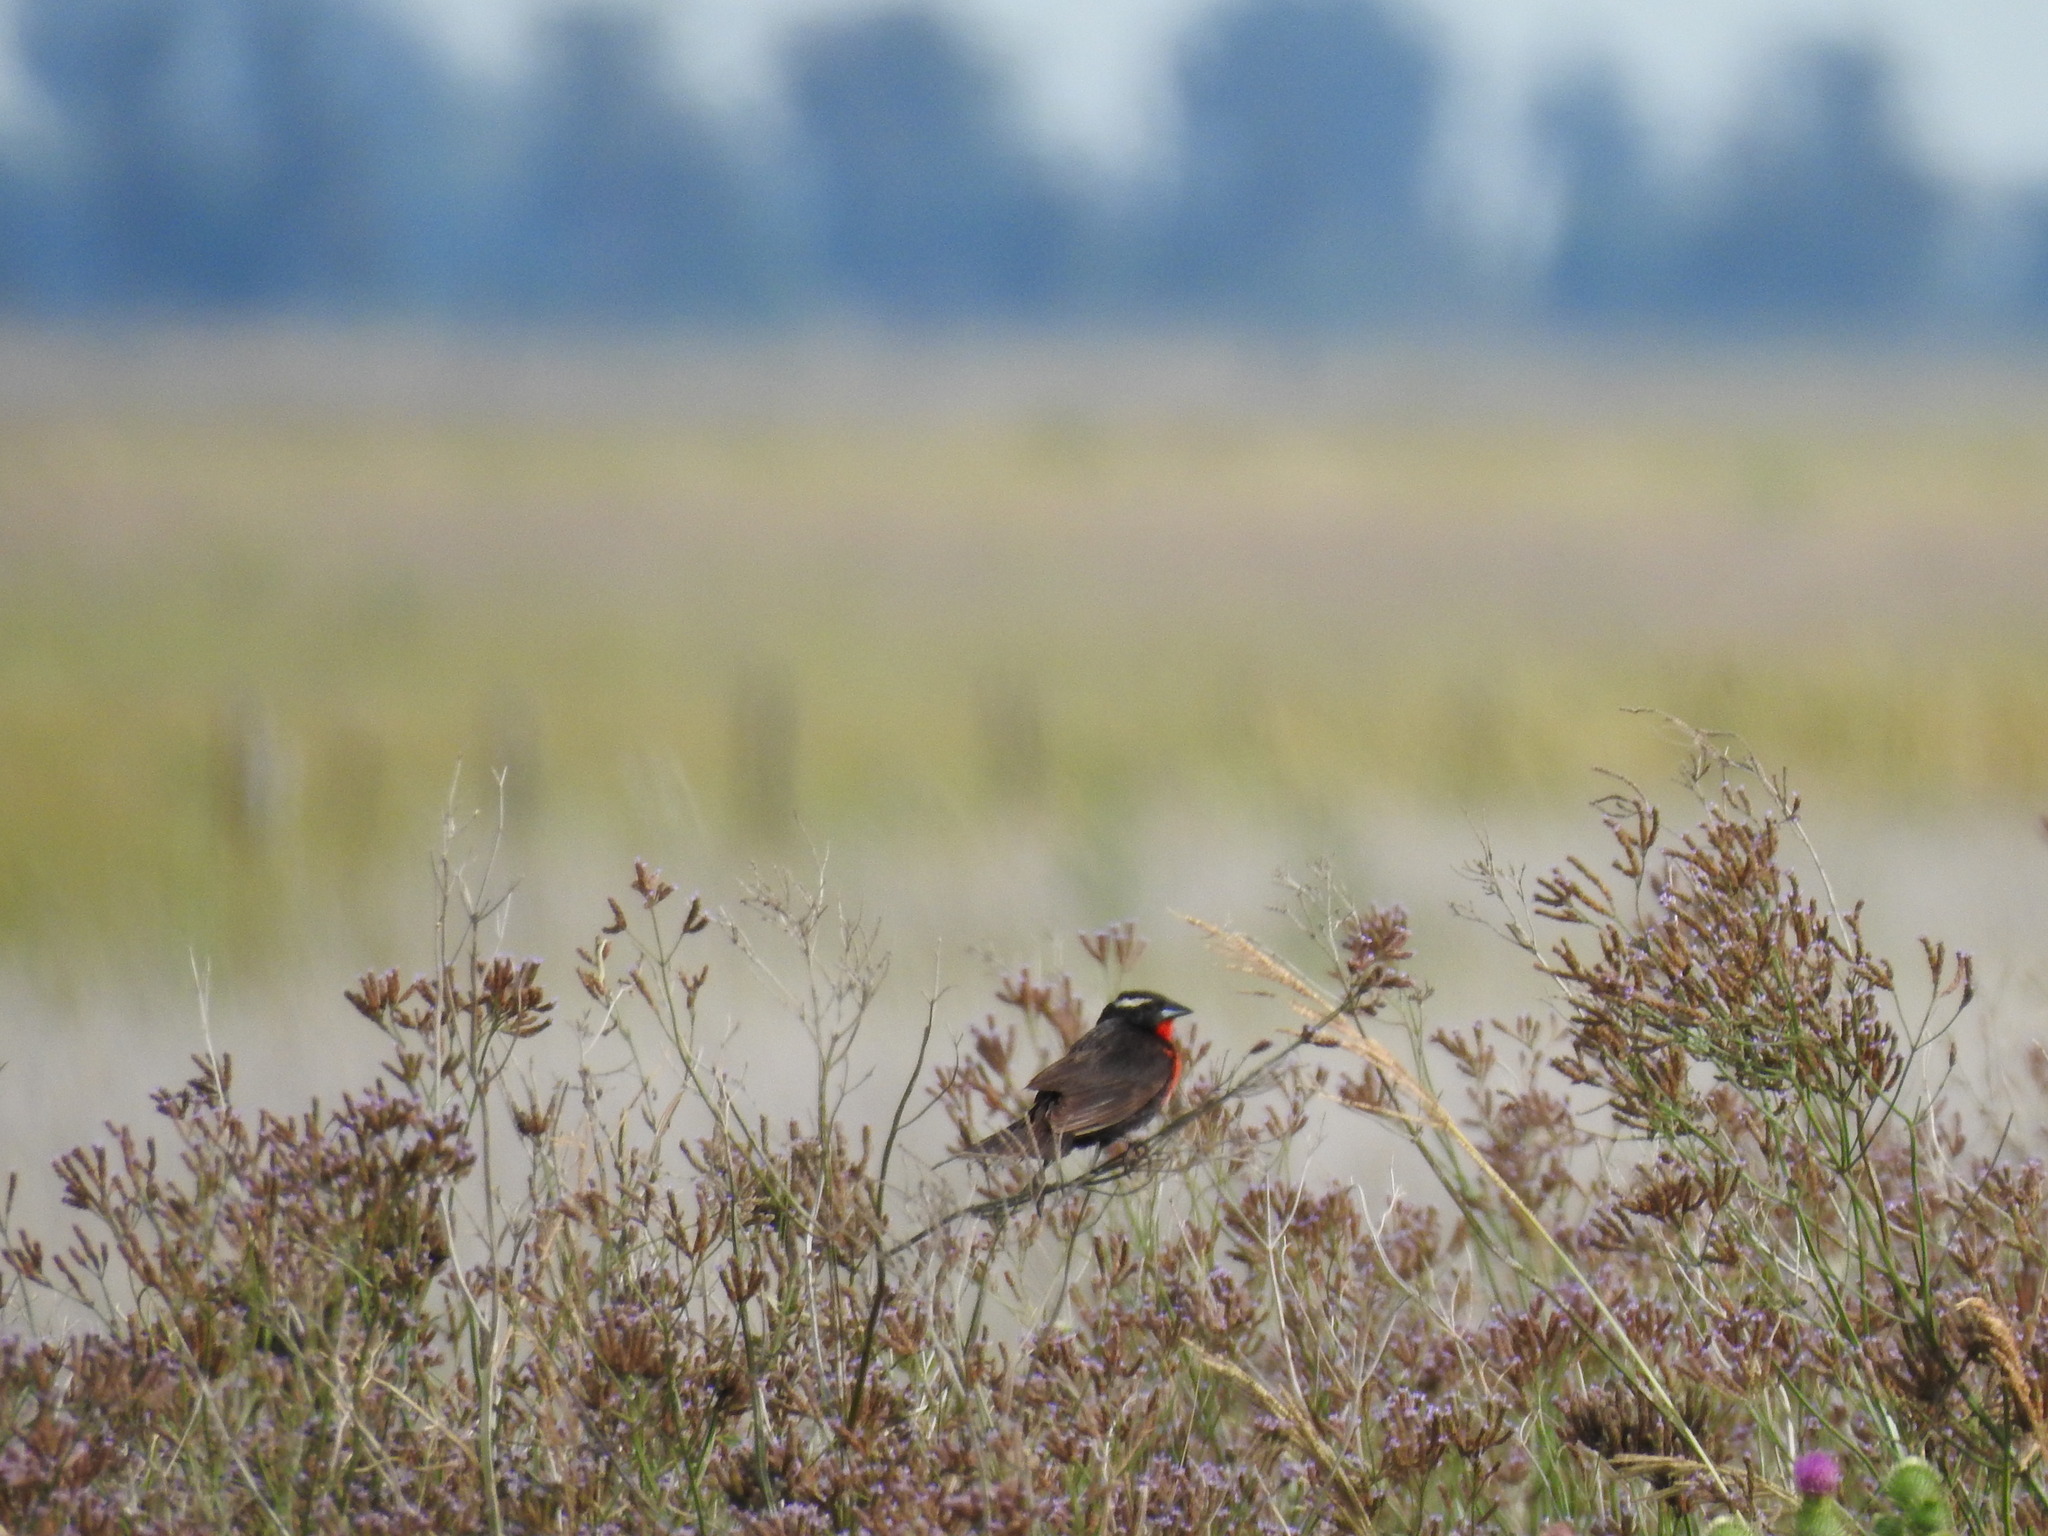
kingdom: Animalia
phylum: Chordata
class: Aves
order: Passeriformes
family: Icteridae
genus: Sturnella
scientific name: Sturnella superciliaris
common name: White-browed blackbird
